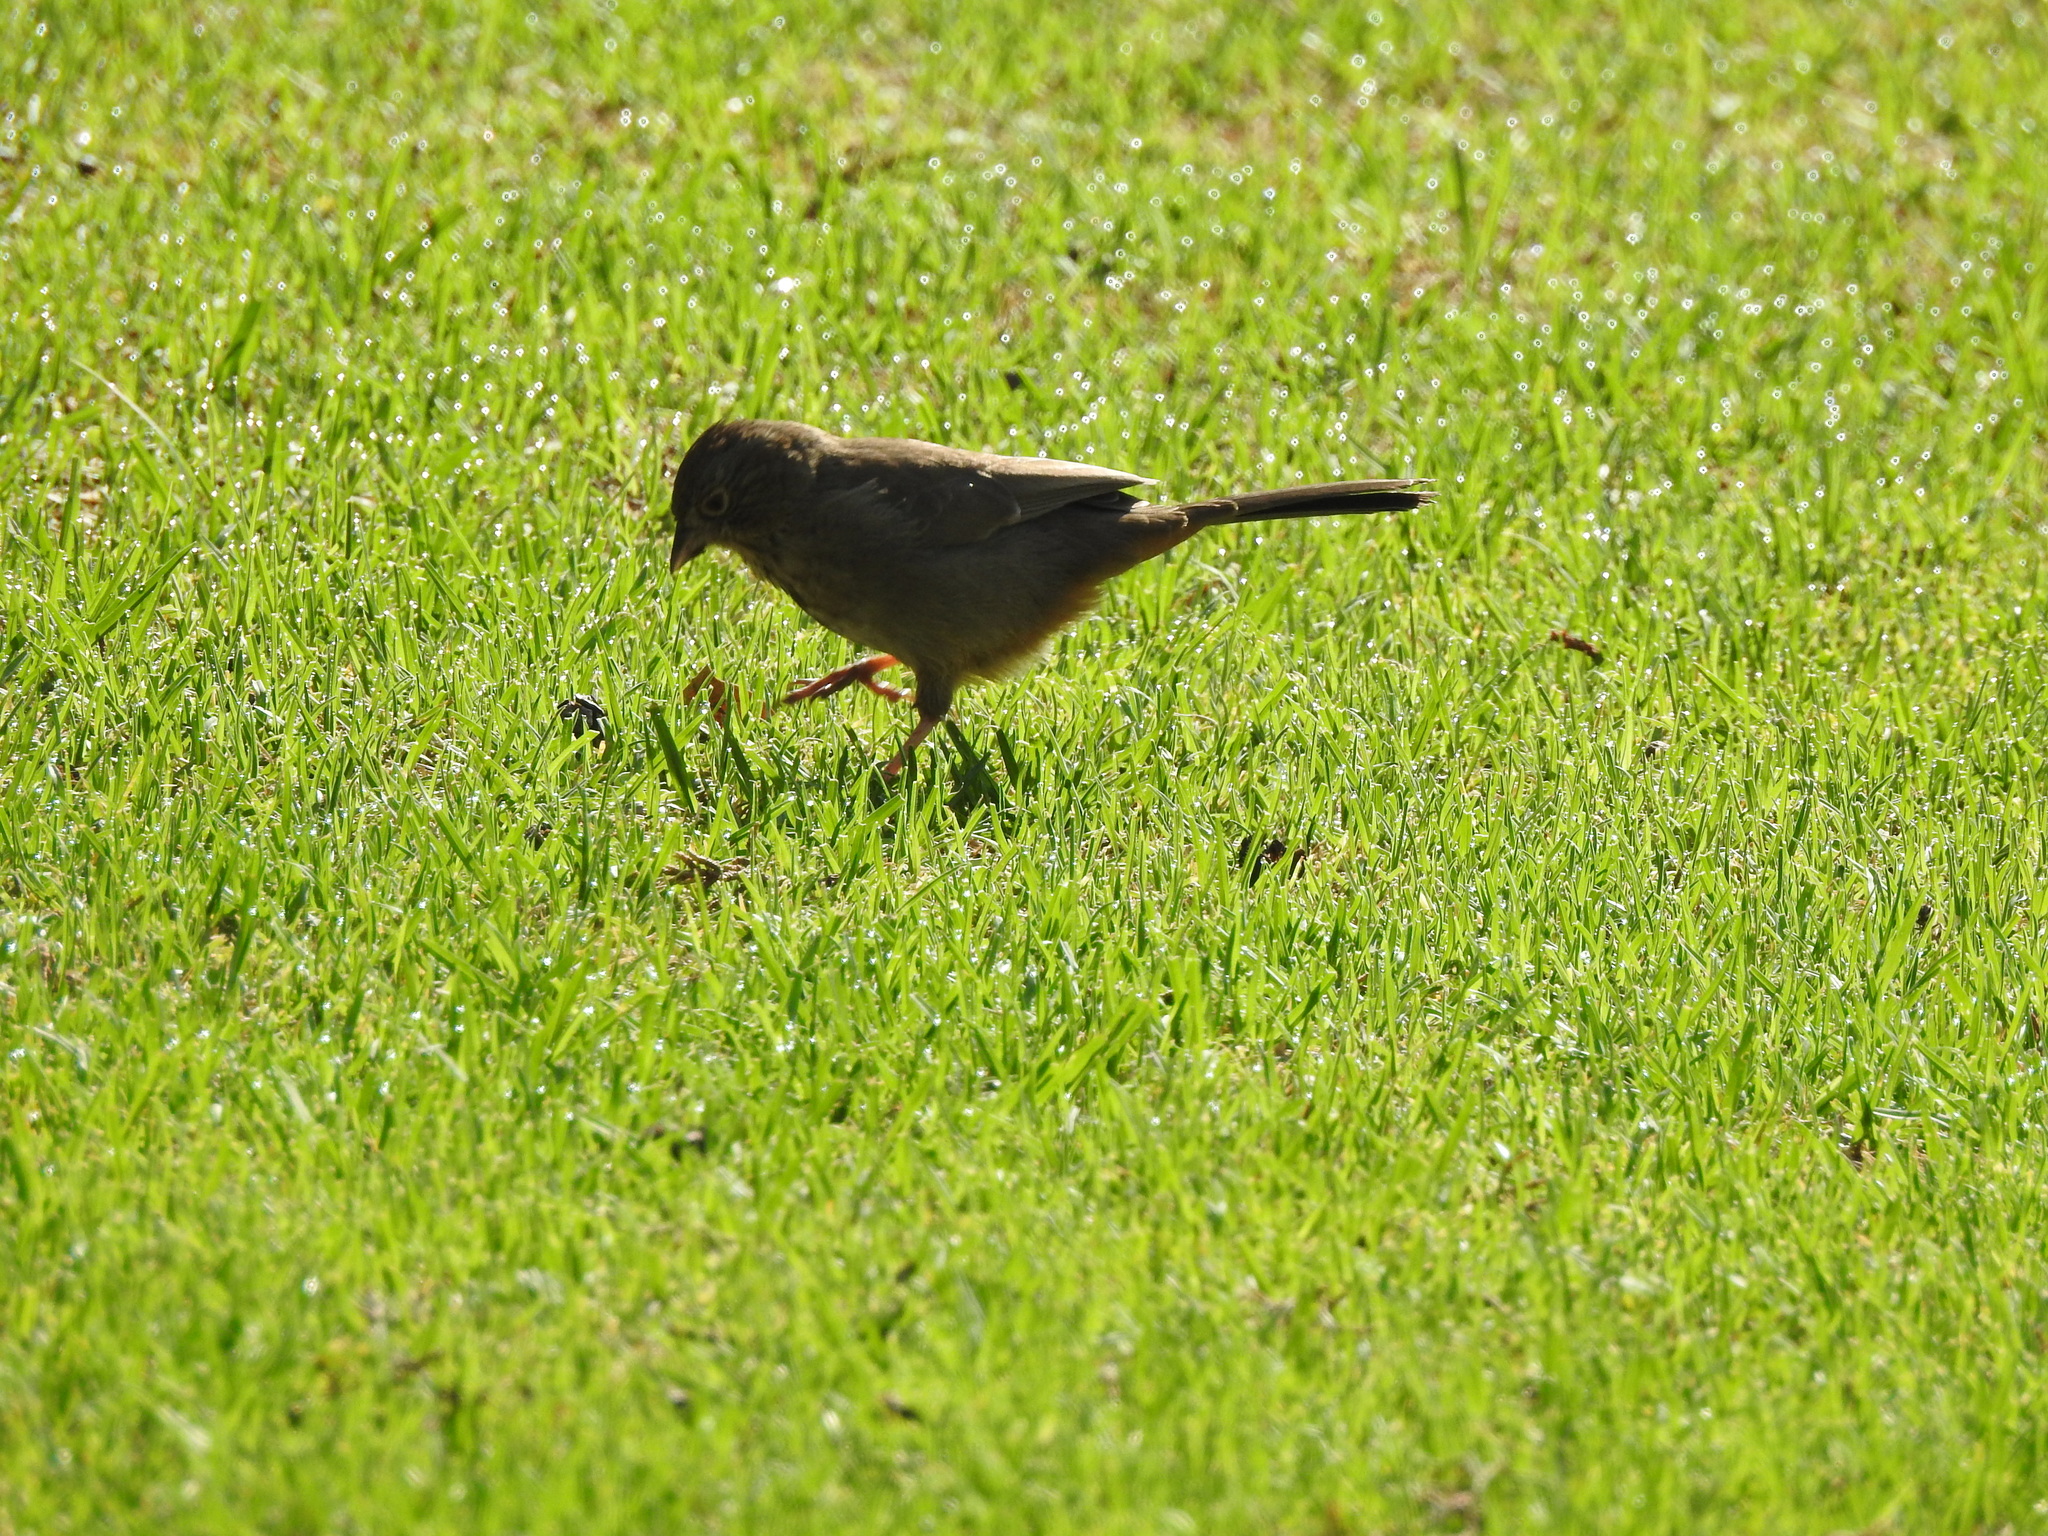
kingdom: Animalia
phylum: Chordata
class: Aves
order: Passeriformes
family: Passerellidae
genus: Melozone
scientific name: Melozone fusca
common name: Canyon towhee
